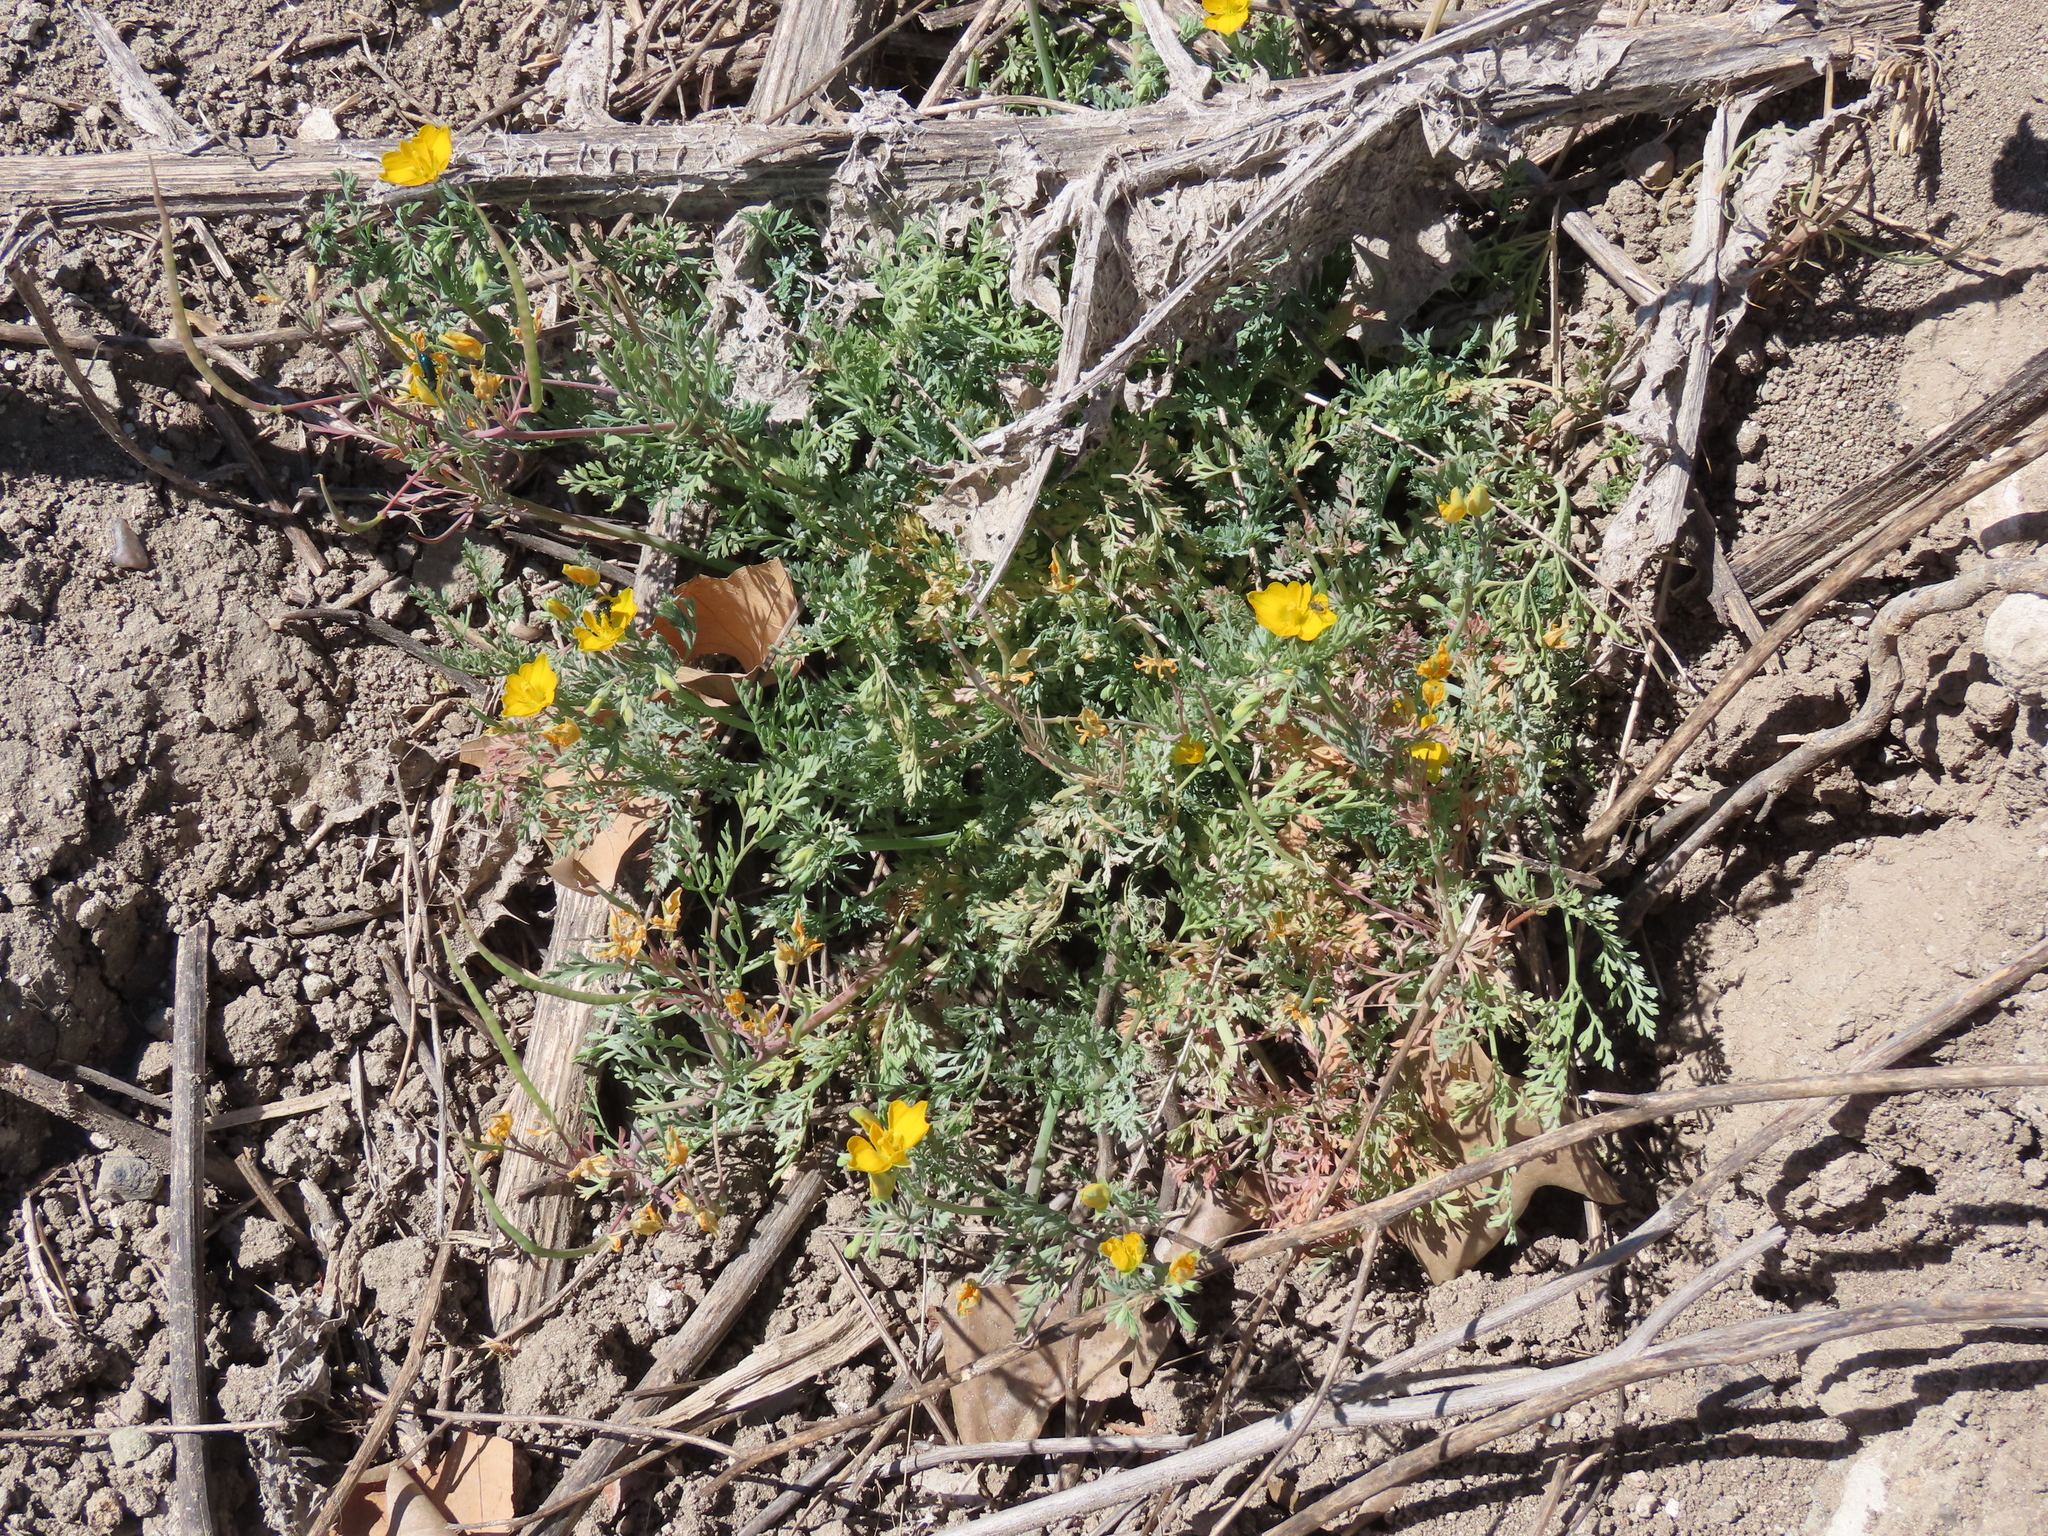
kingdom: Plantae
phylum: Tracheophyta
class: Magnoliopsida
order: Ranunculales
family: Papaveraceae
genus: Hypecoum
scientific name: Hypecoum imberbe
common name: Sicklefruit hypecoum
